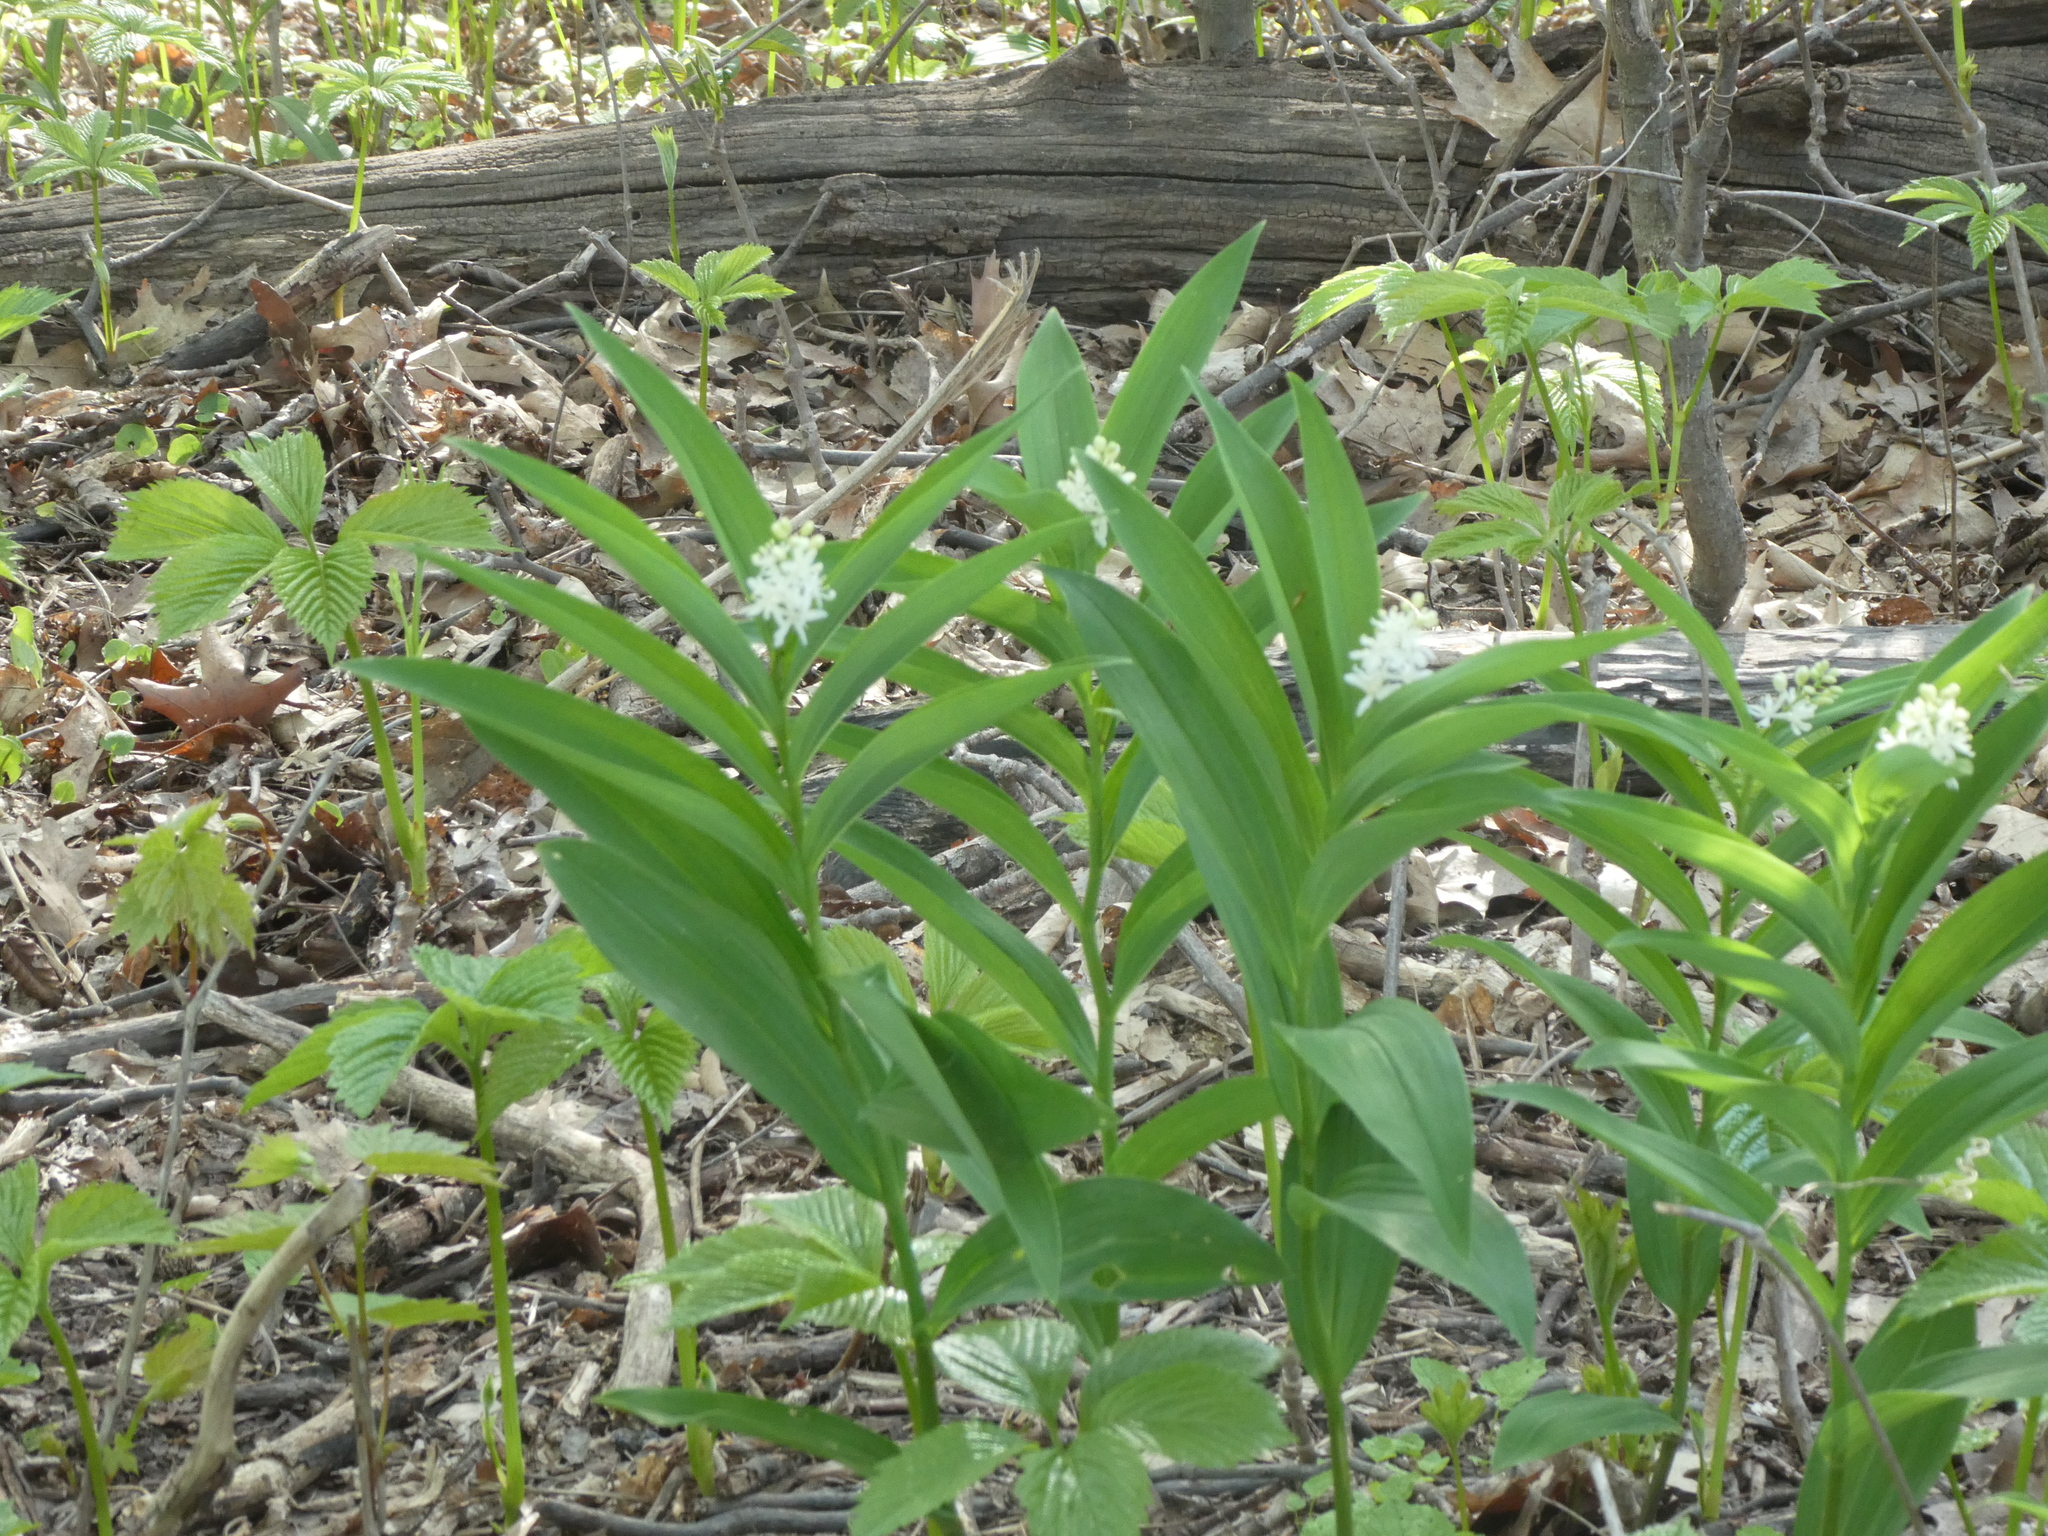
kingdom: Plantae
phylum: Tracheophyta
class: Liliopsida
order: Asparagales
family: Asparagaceae
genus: Maianthemum
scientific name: Maianthemum stellatum
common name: Little false solomon's seal
